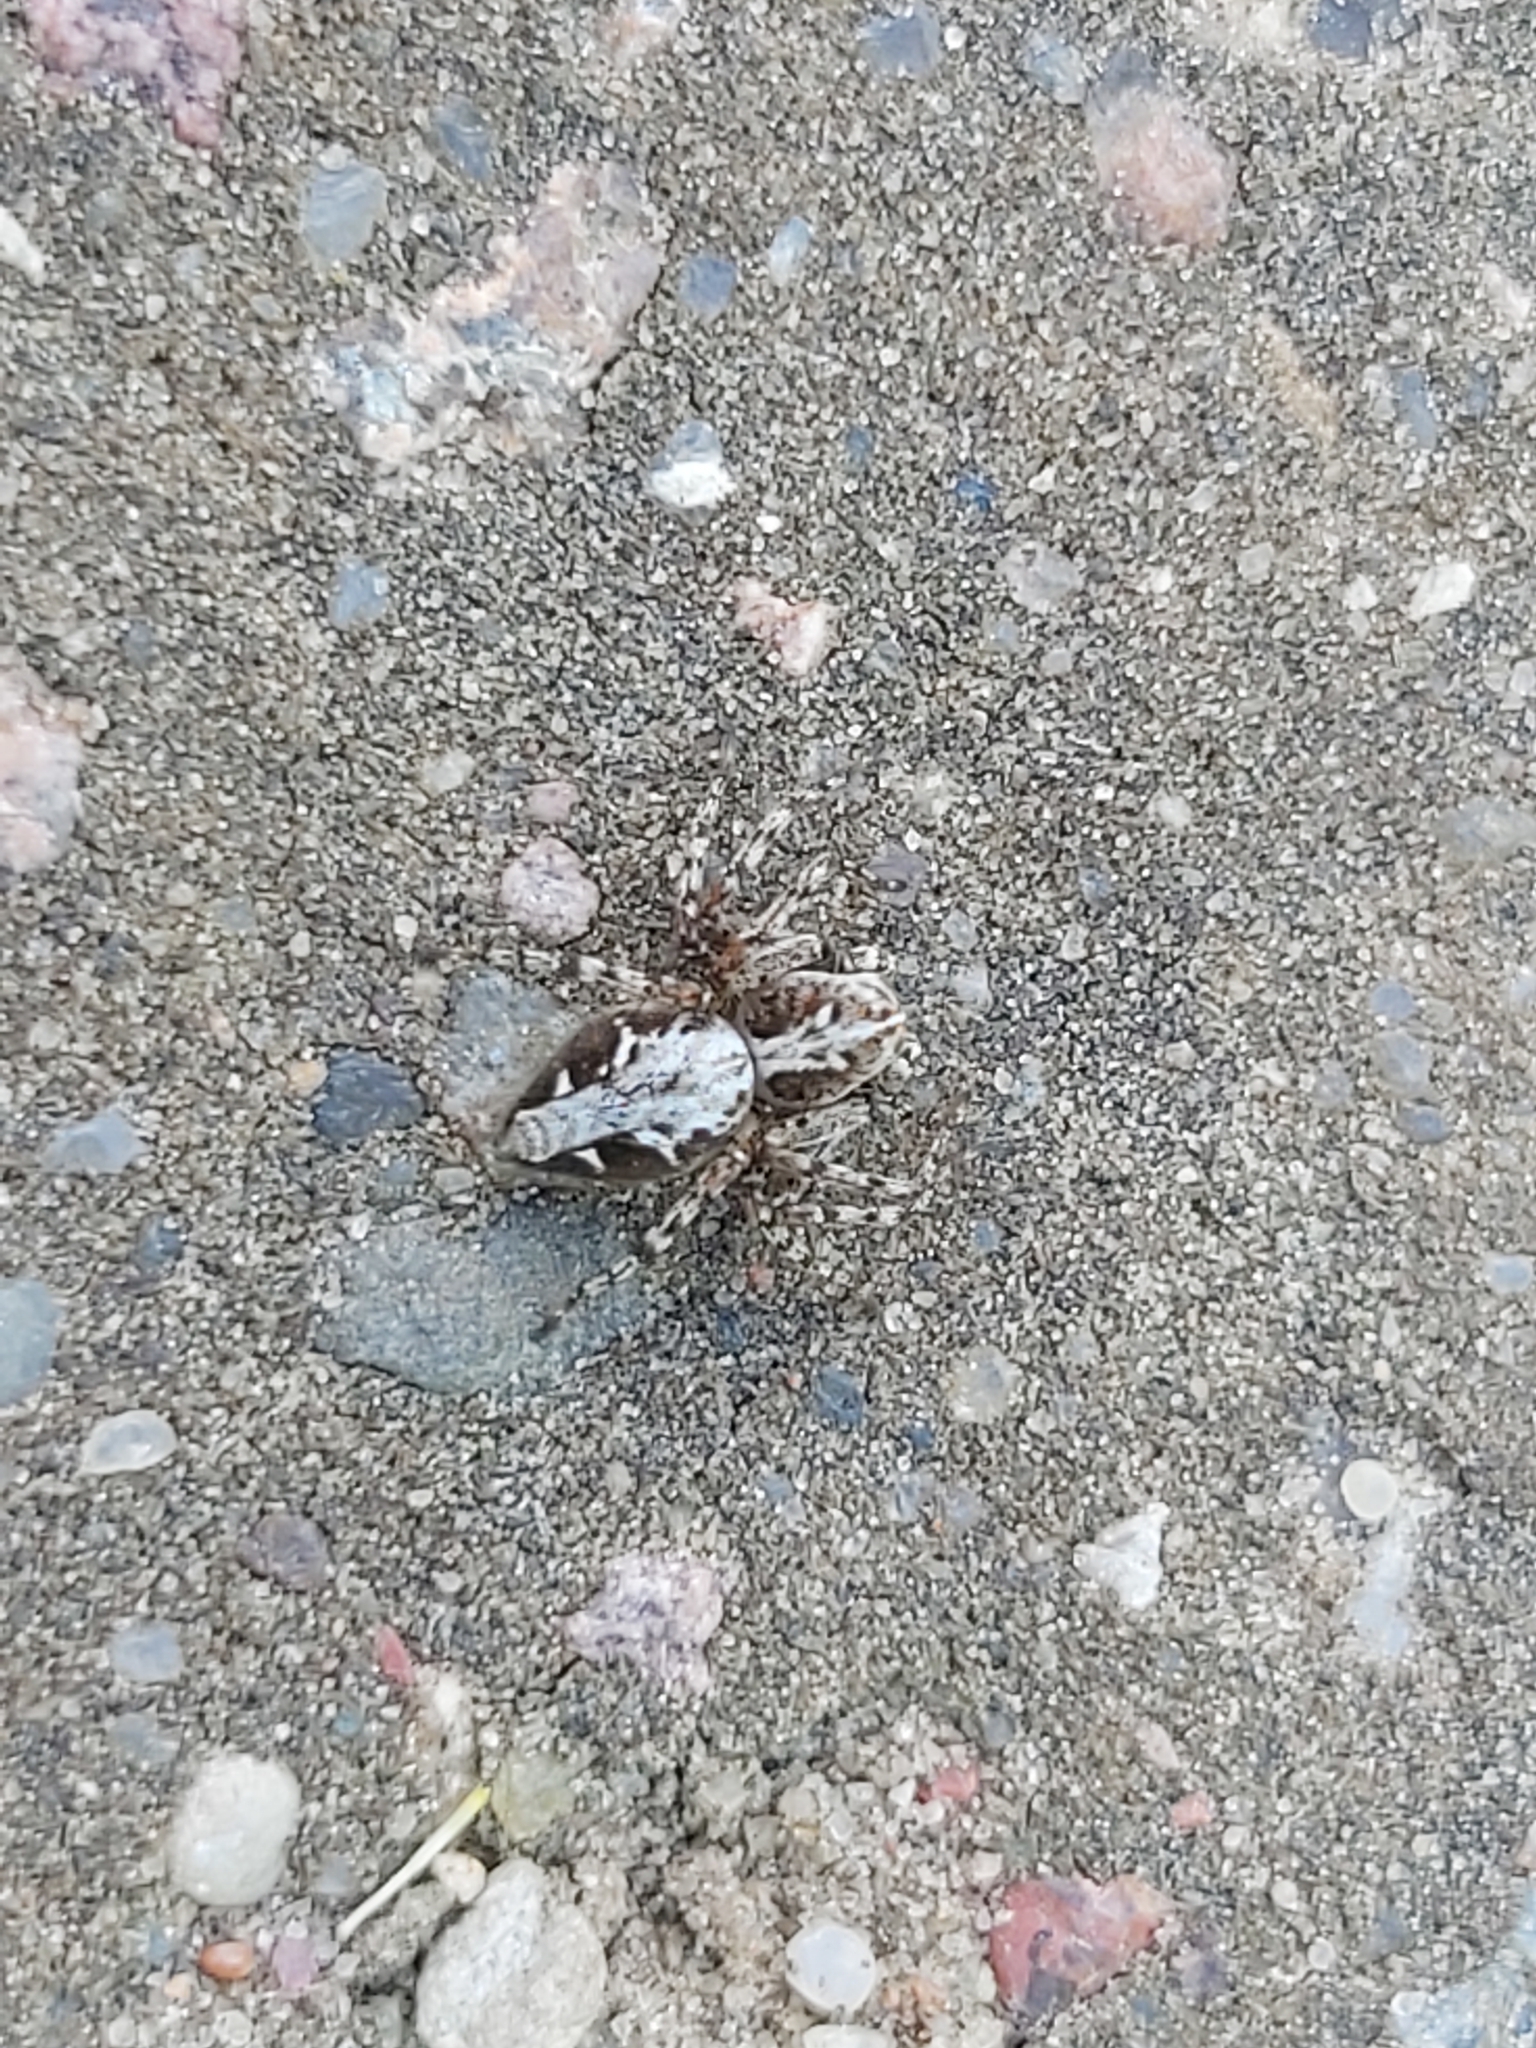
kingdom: Animalia
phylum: Arthropoda
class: Arachnida
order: Araneae
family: Oxyopidae
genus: Oxyopes
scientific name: Oxyopes ramosus
